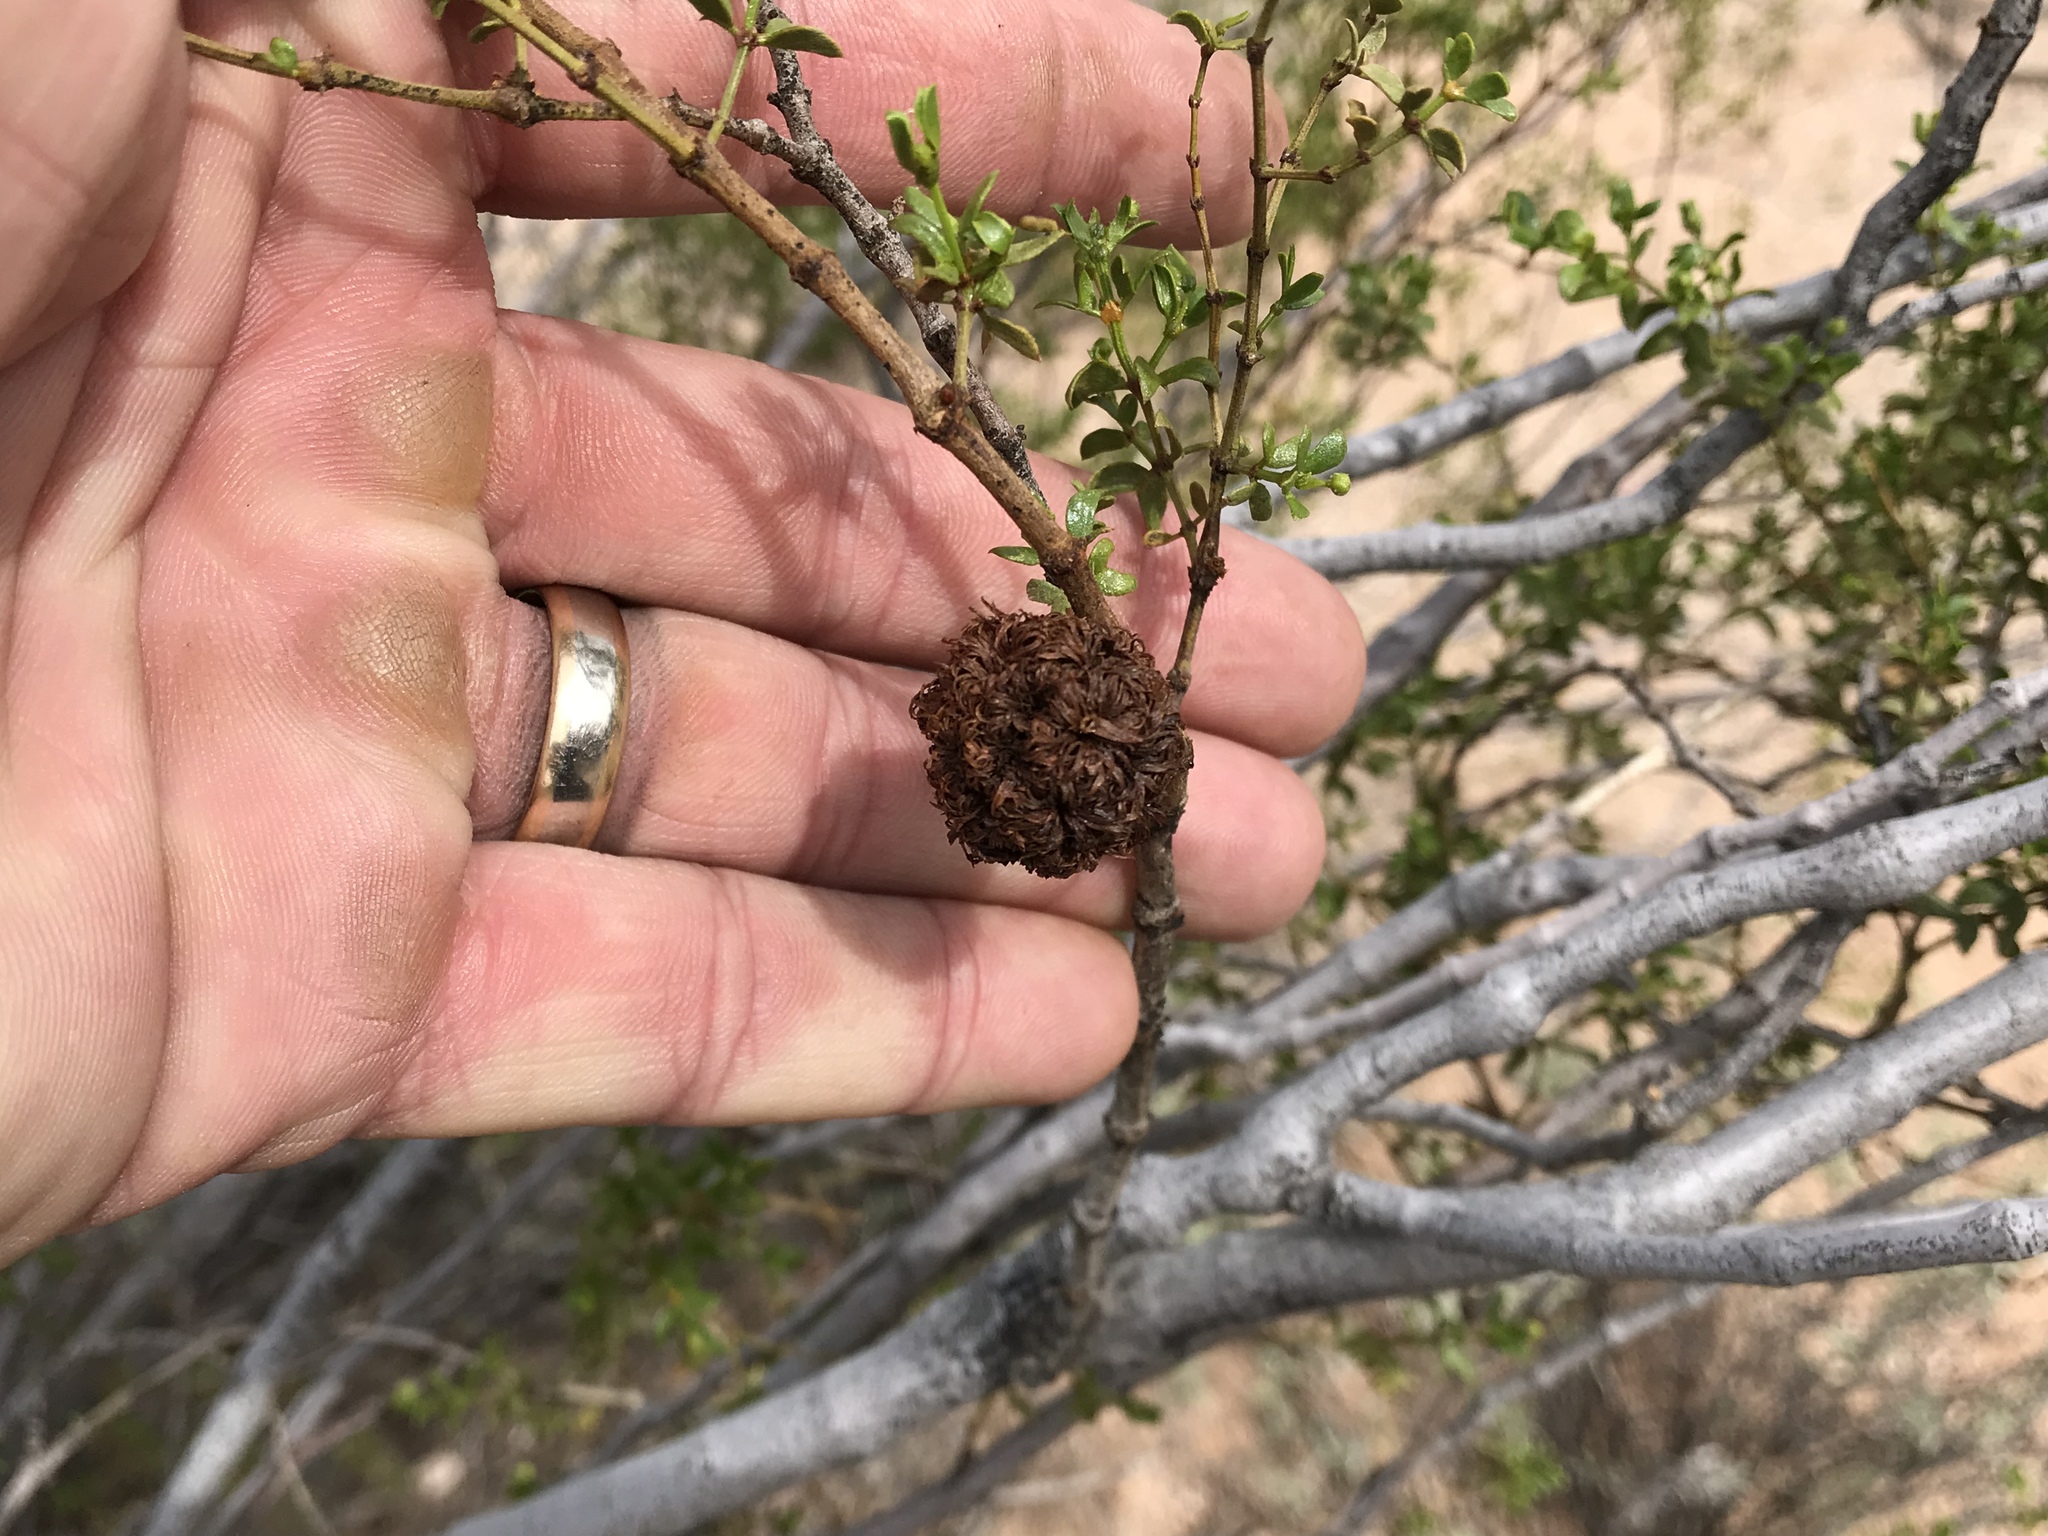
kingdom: Animalia
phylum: Arthropoda
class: Insecta
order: Diptera
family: Cecidomyiidae
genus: Asphondylia
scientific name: Asphondylia auripila
